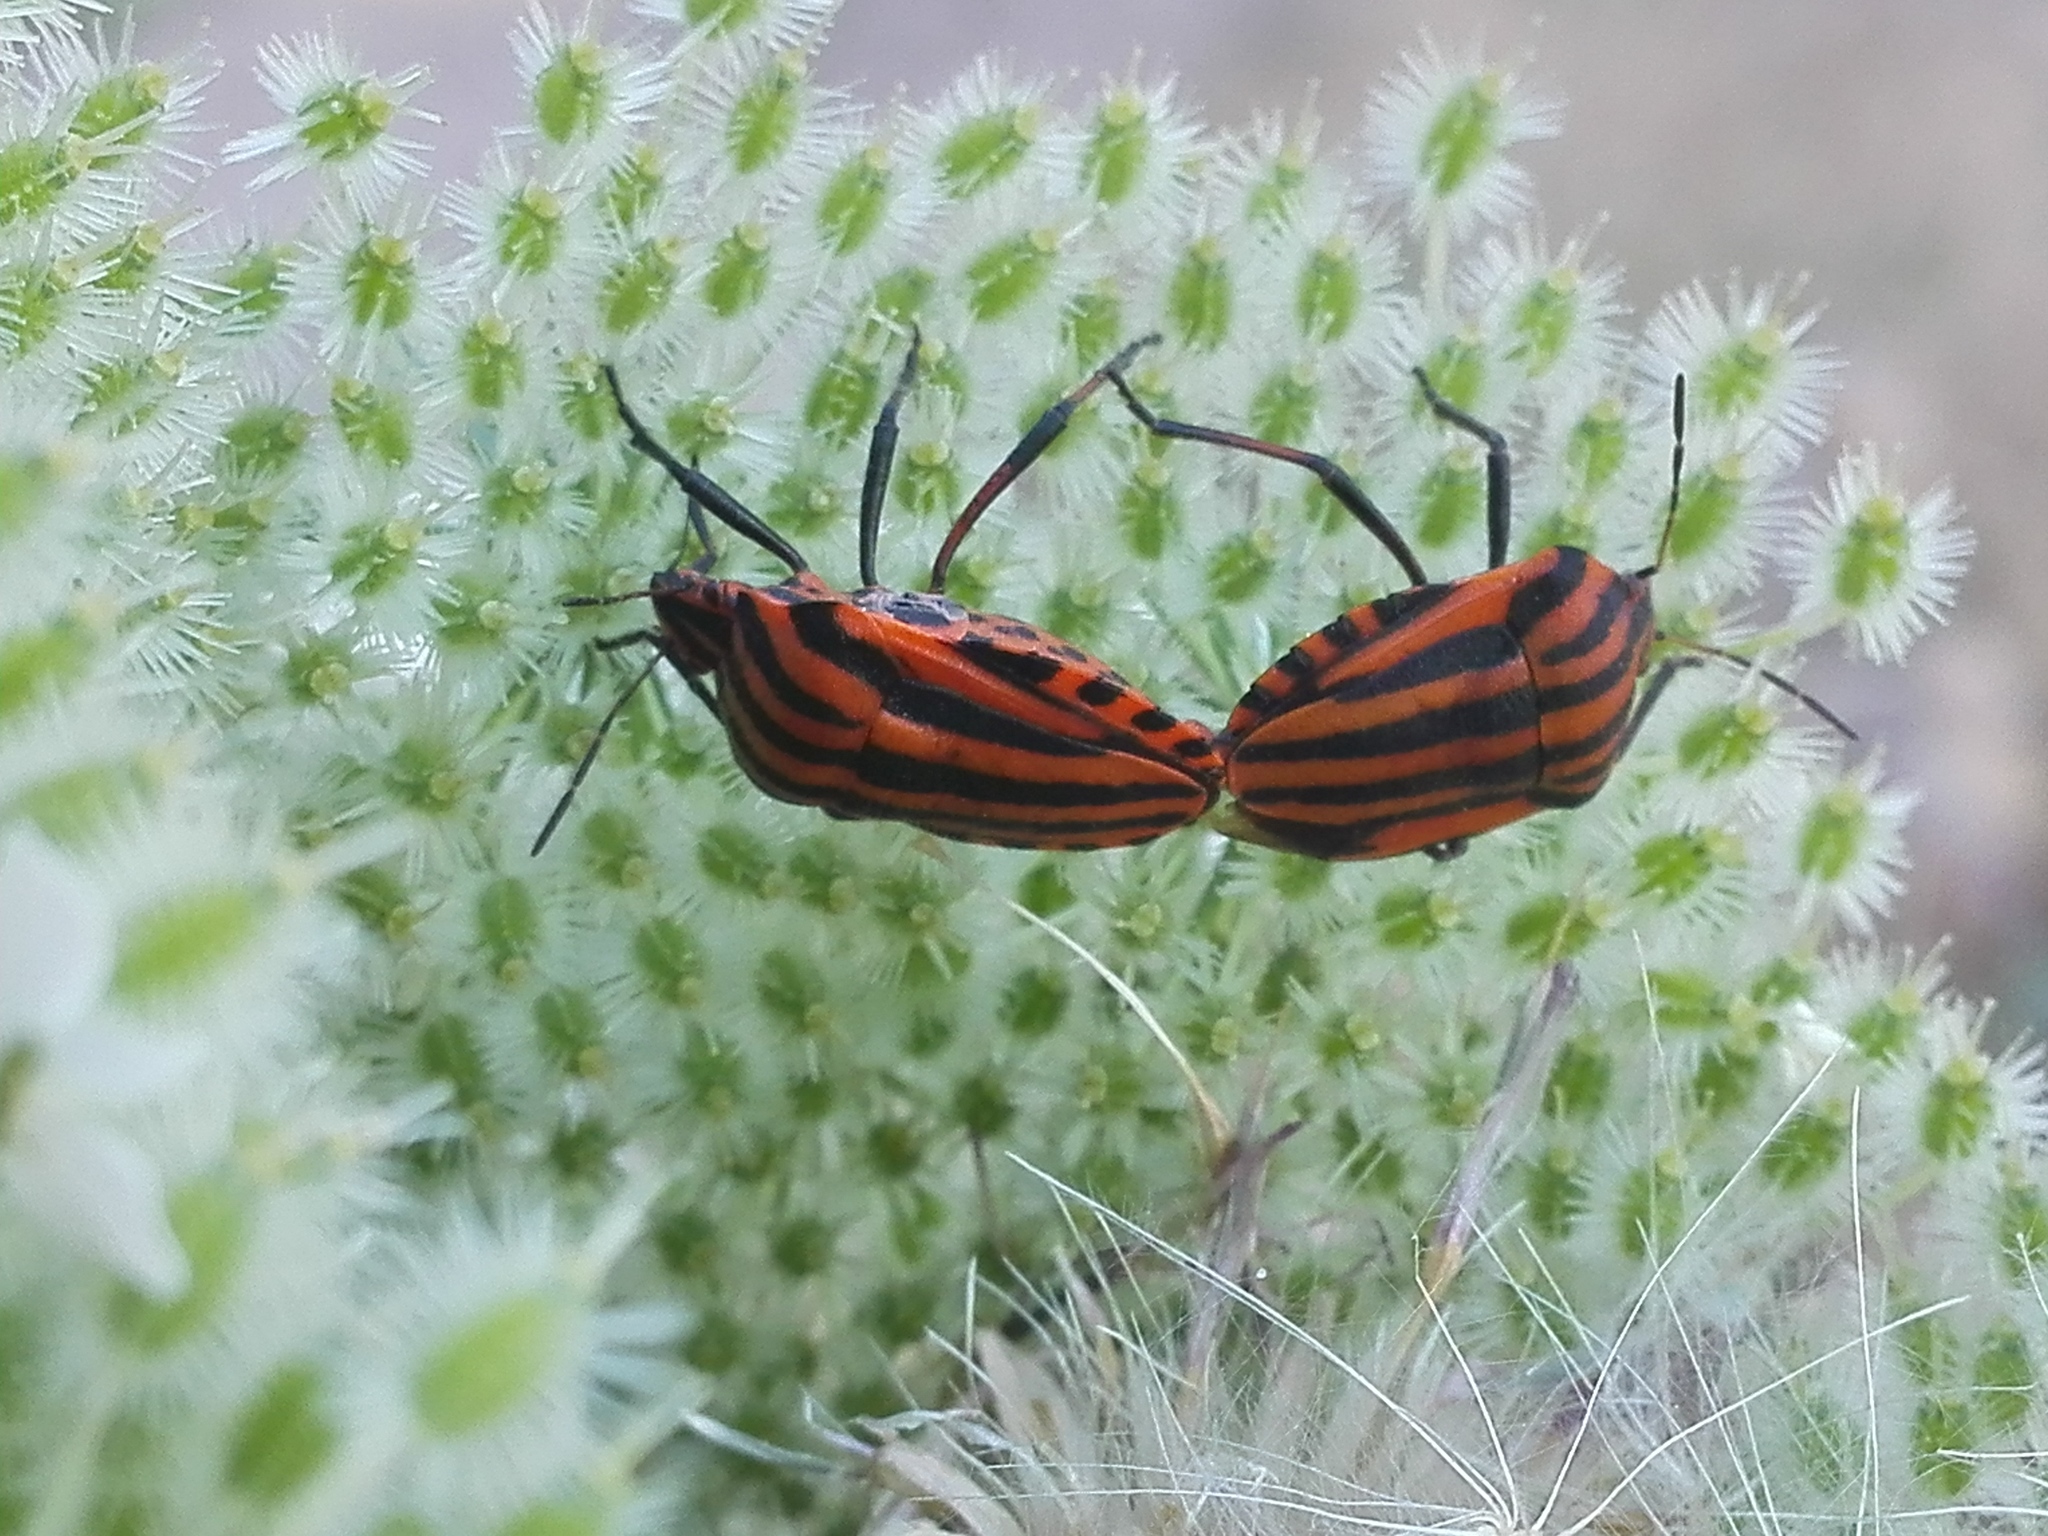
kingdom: Animalia
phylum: Arthropoda
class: Insecta
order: Hemiptera
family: Pentatomidae
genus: Graphosoma
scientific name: Graphosoma italicum
